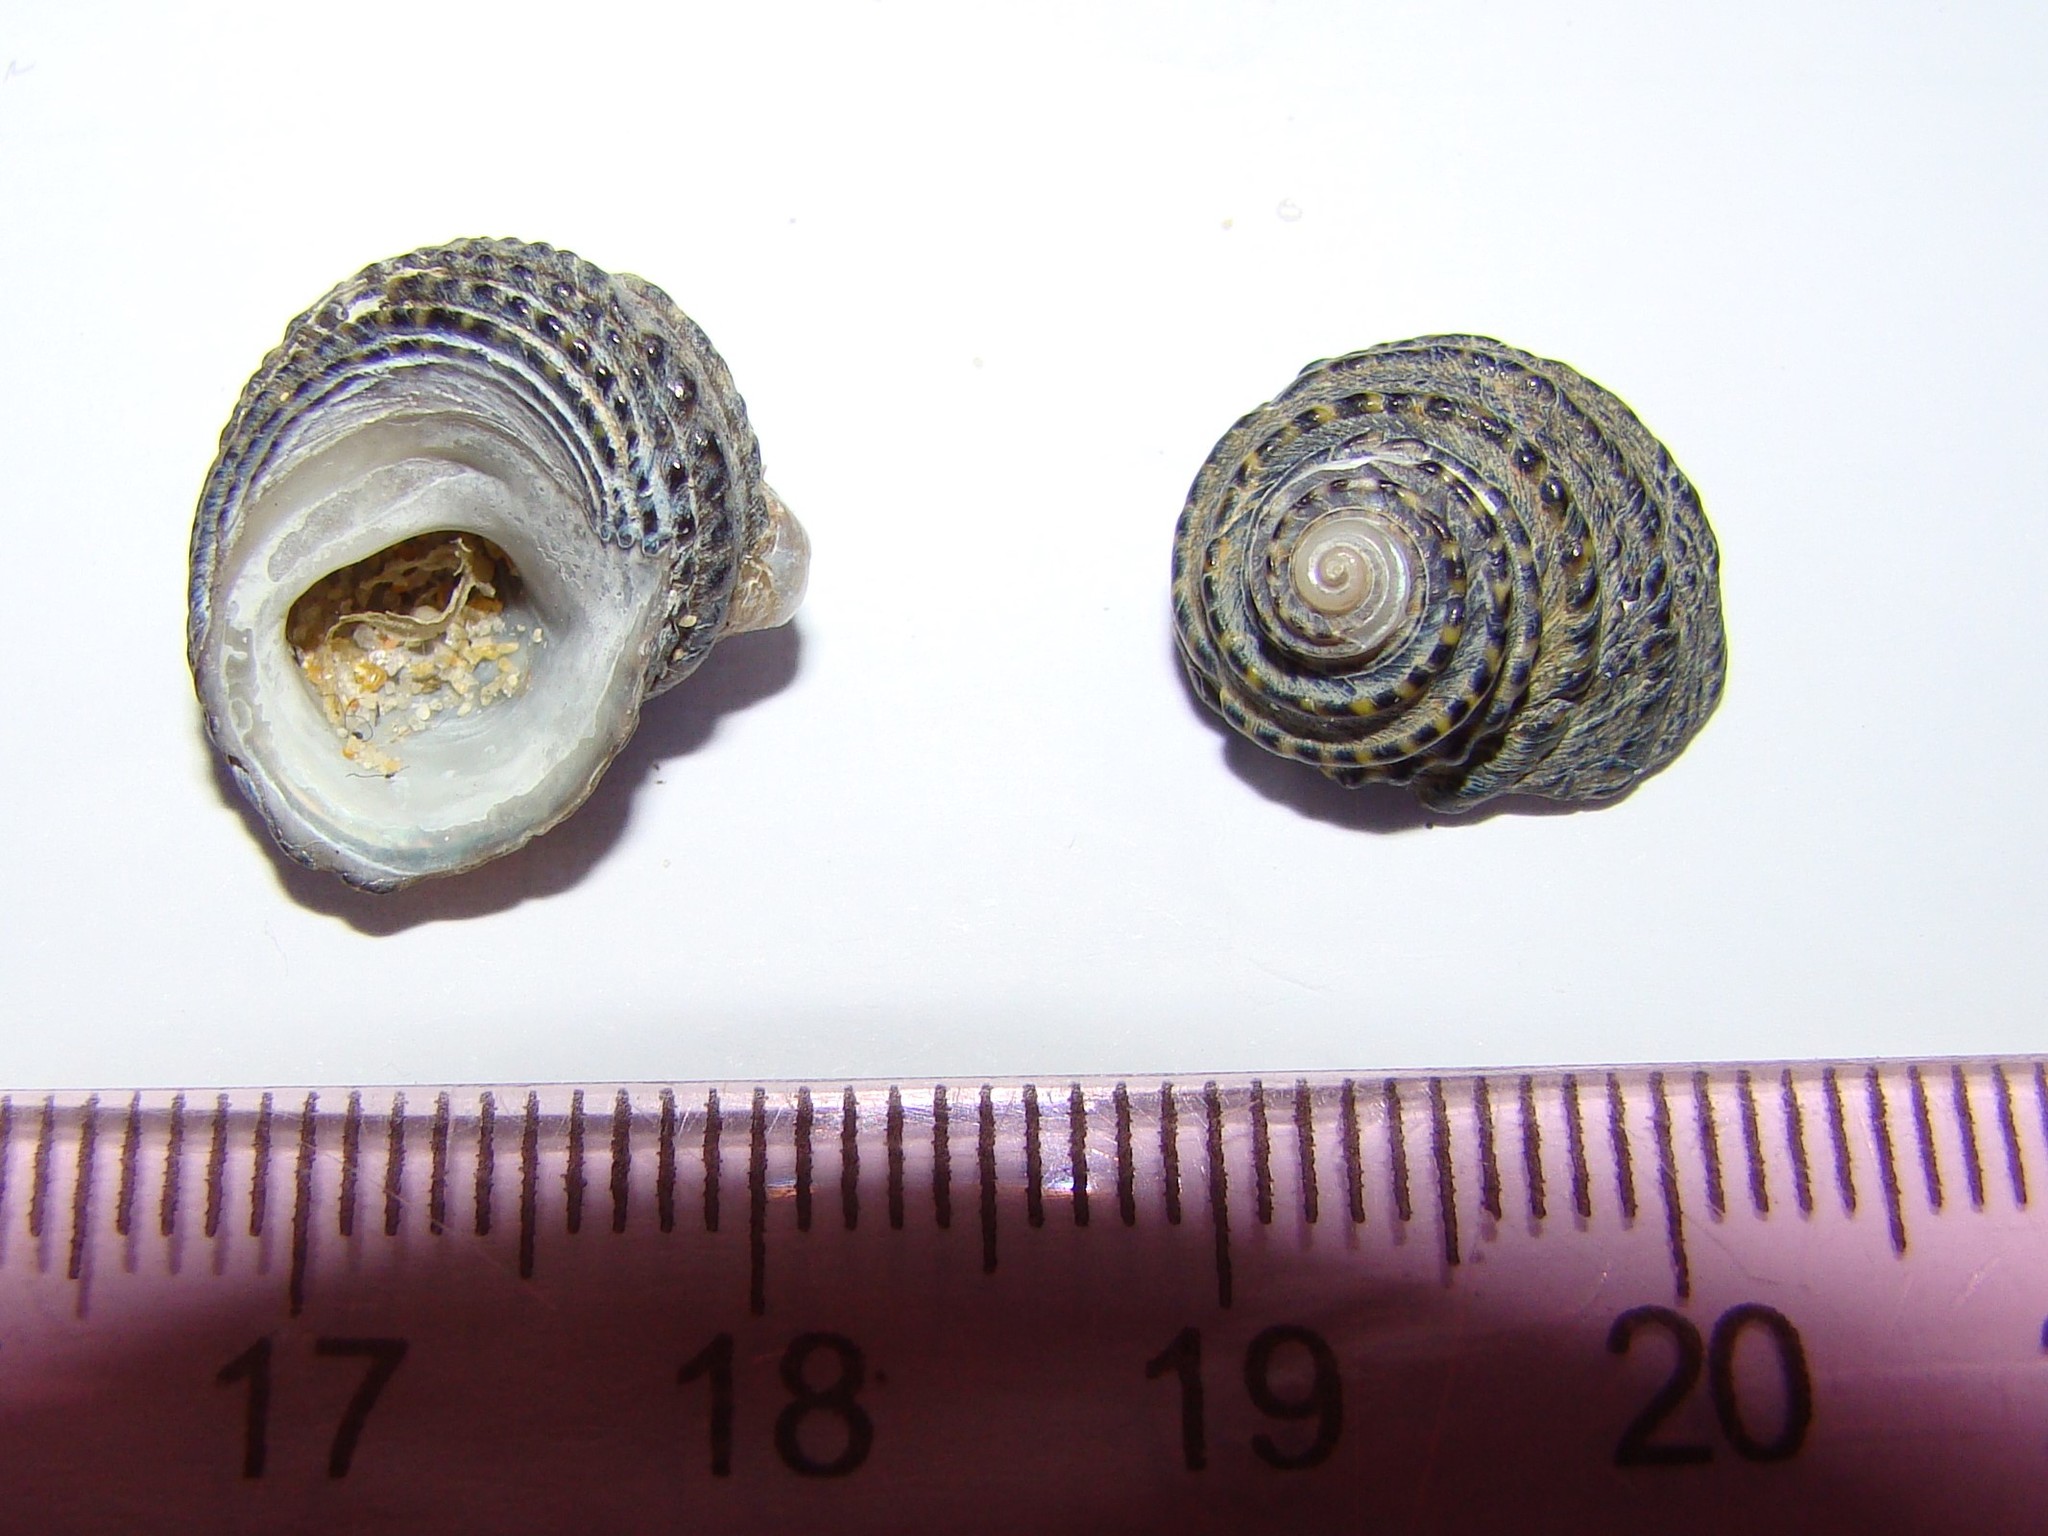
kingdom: Animalia
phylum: Mollusca
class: Gastropoda
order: Trochida
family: Trochidae
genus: Diloma
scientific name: Diloma bicanaliculatum
